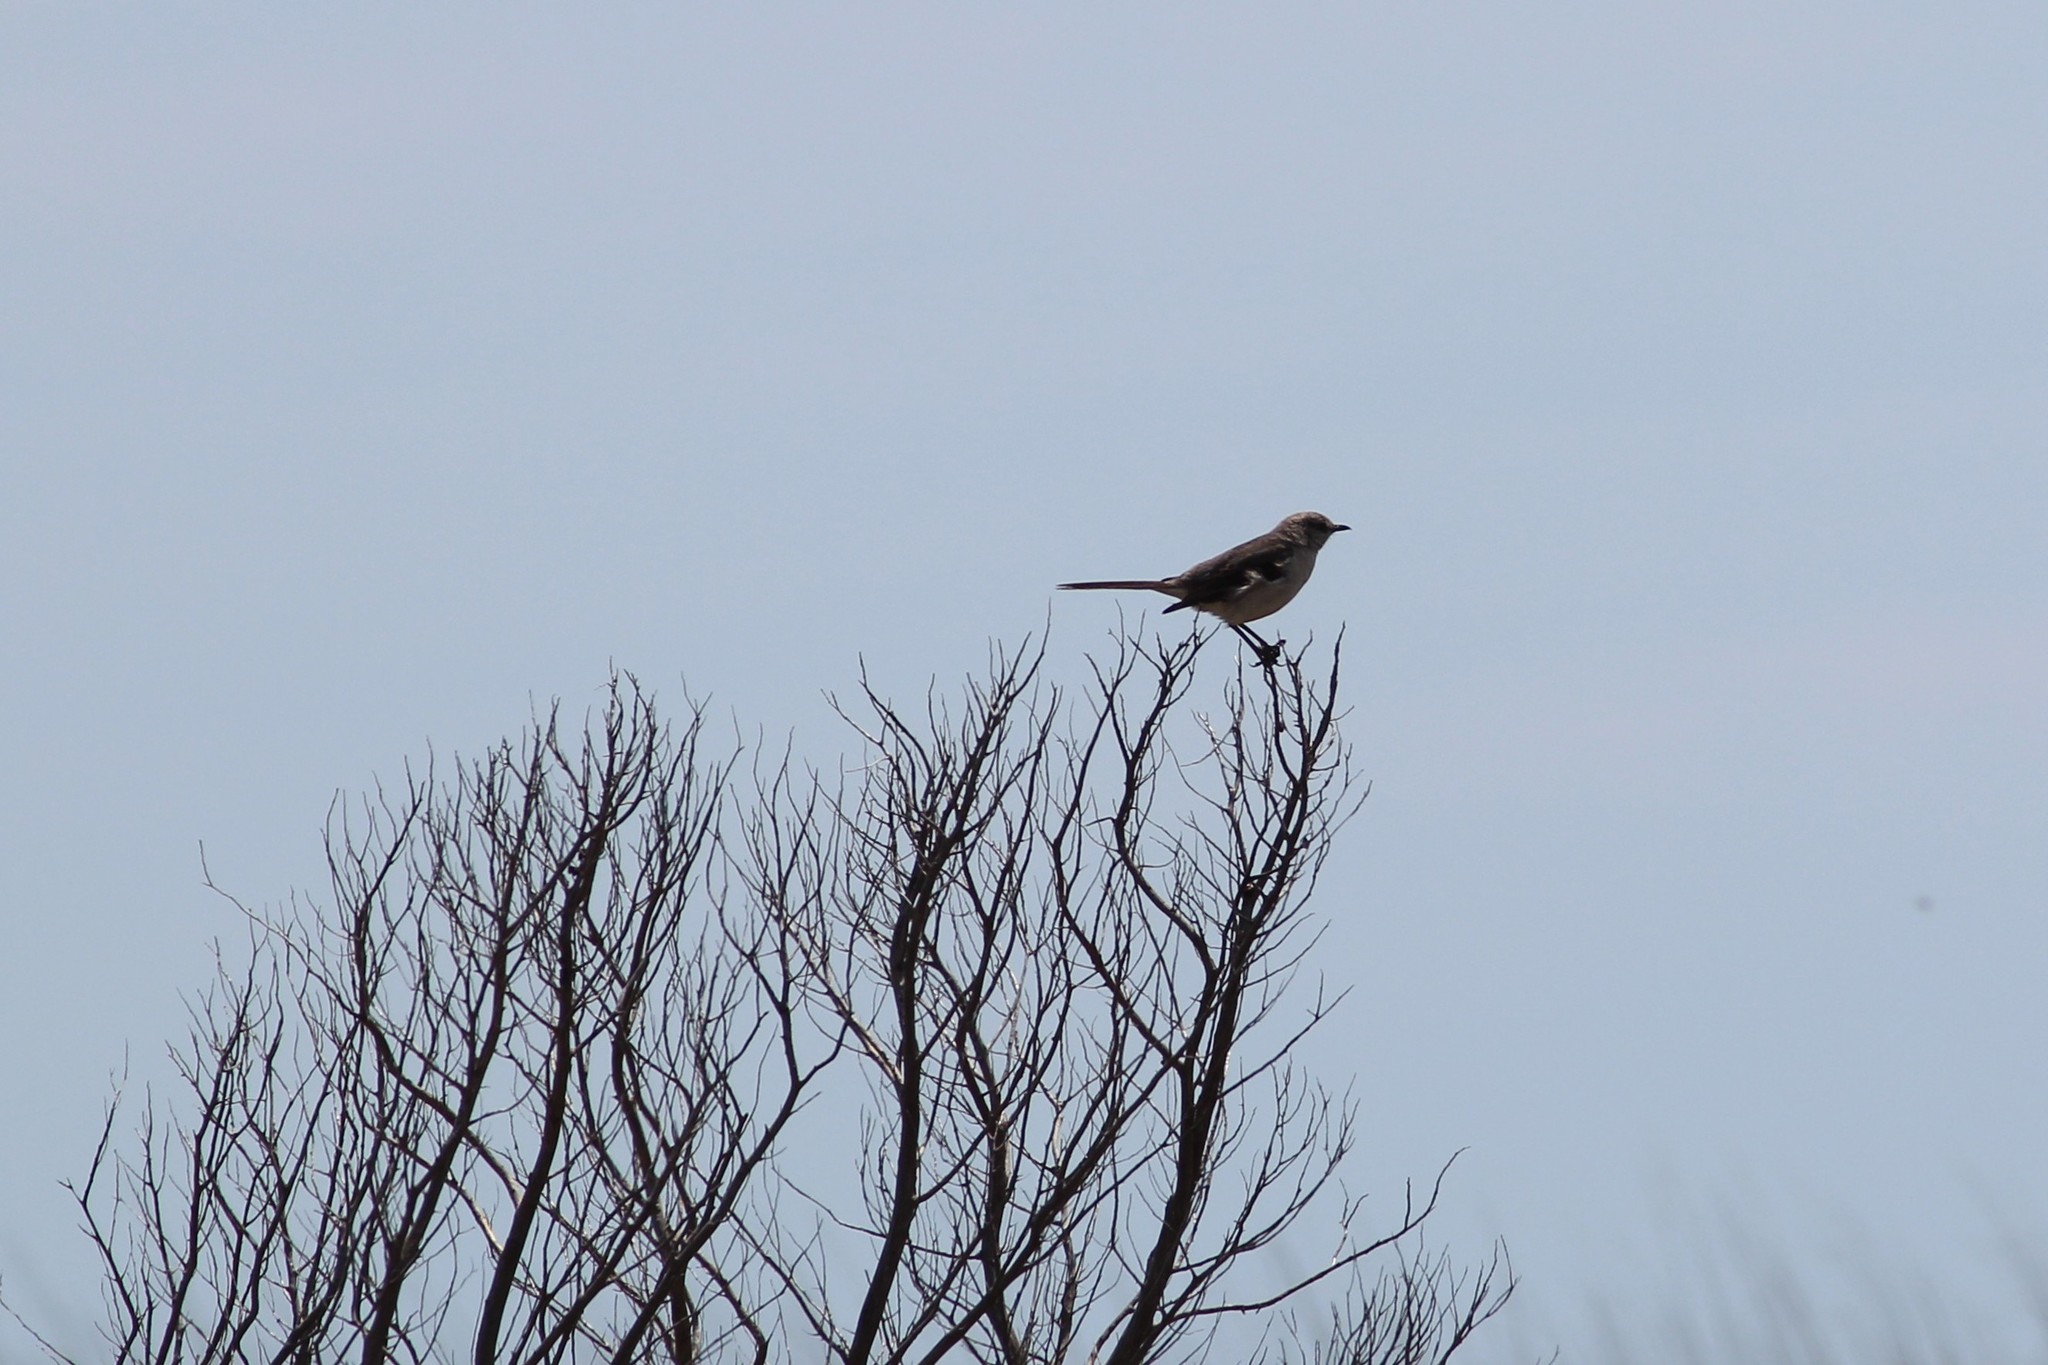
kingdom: Animalia
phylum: Chordata
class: Aves
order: Passeriformes
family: Mimidae
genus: Mimus
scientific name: Mimus polyglottos
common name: Northern mockingbird
